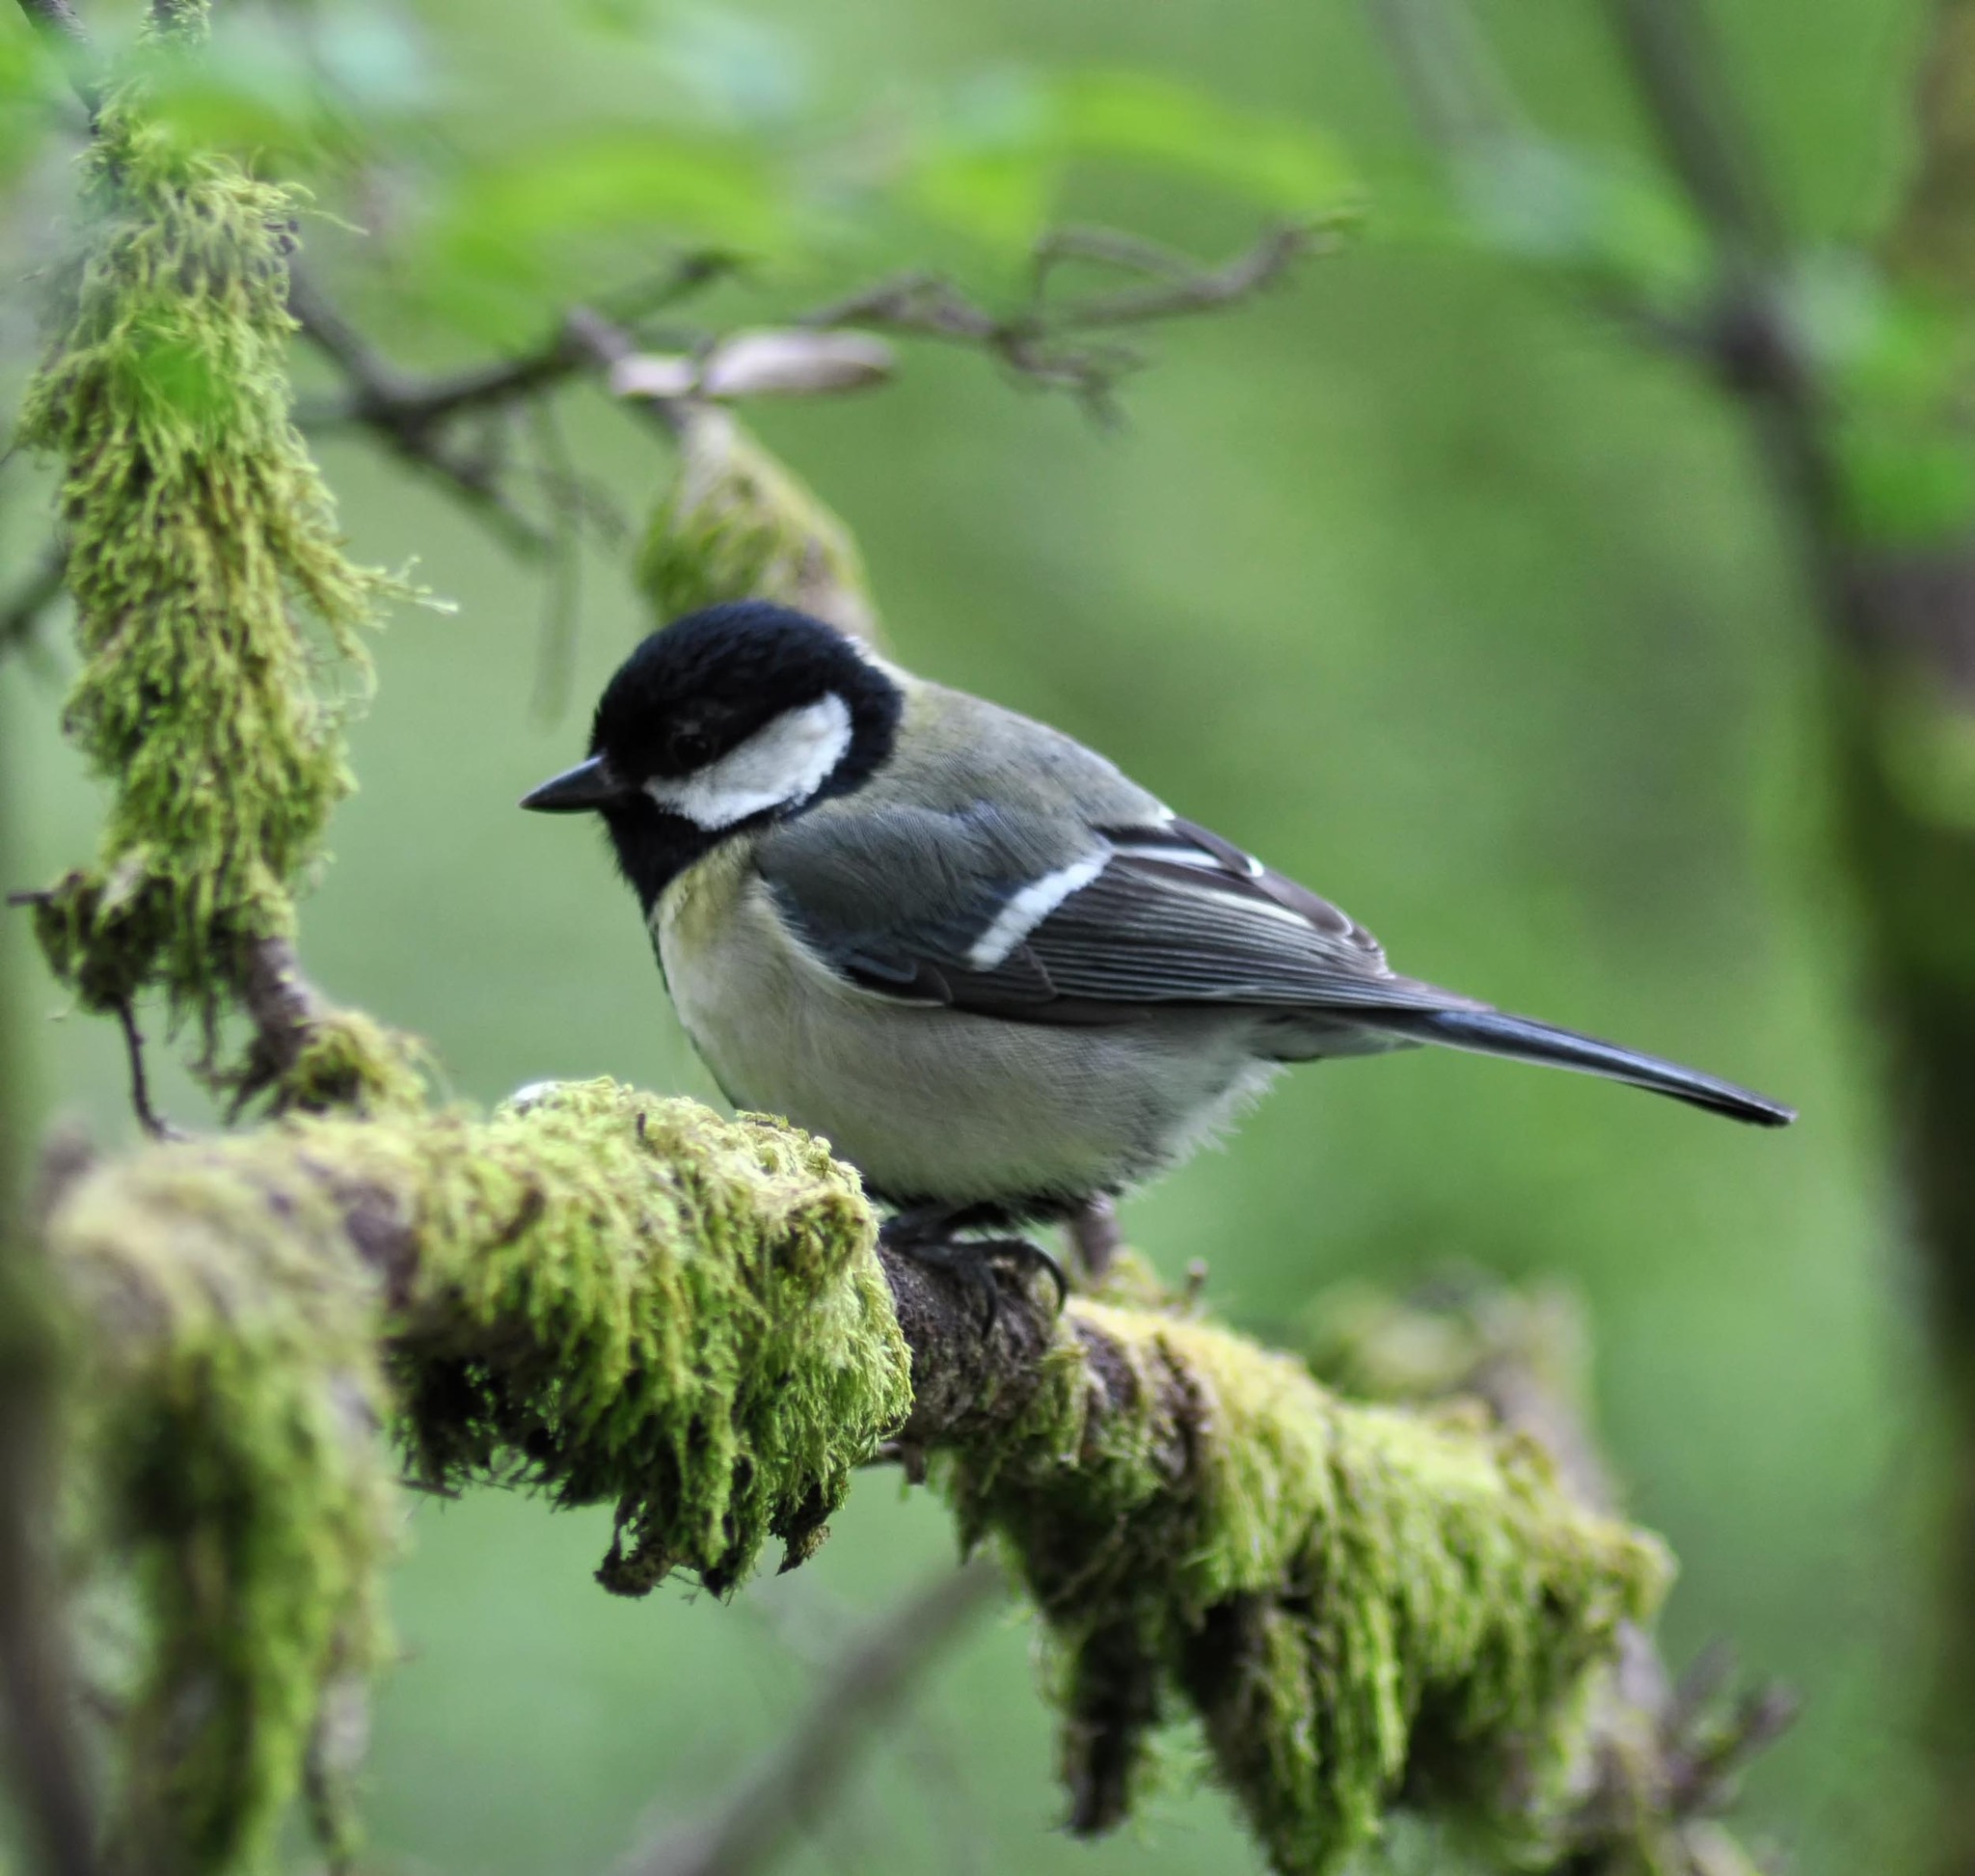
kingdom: Animalia
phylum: Chordata
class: Aves
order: Passeriformes
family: Paridae
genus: Parus
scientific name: Parus major
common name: Great tit
